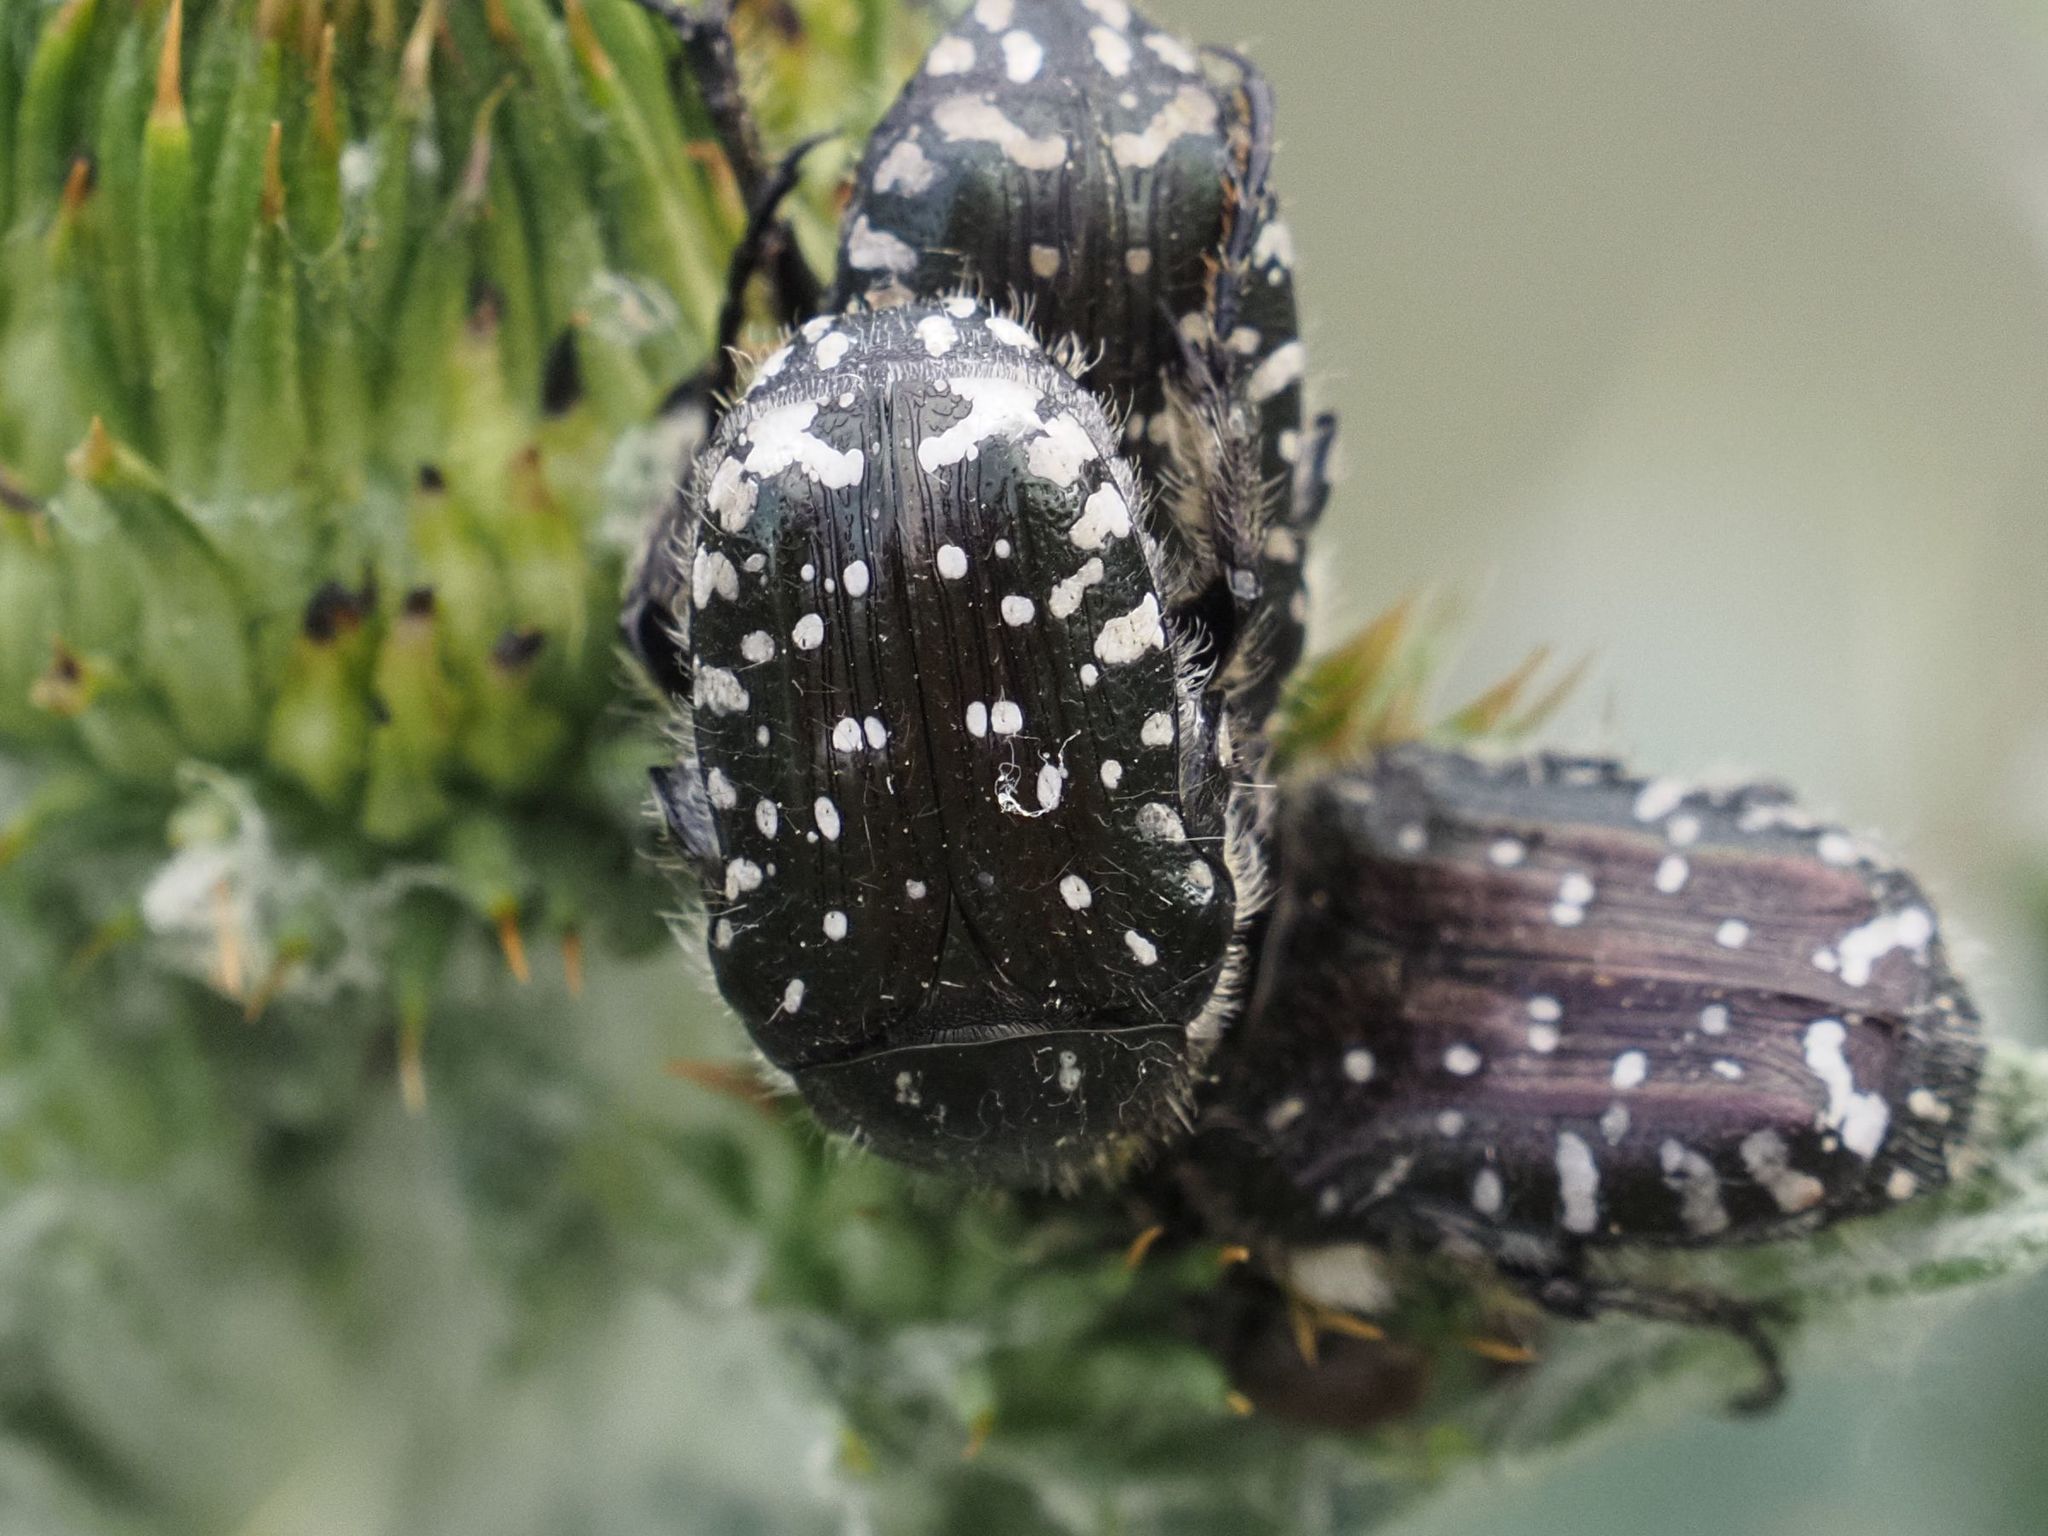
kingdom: Animalia
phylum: Arthropoda
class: Insecta
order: Coleoptera
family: Scarabaeidae
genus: Oxythyrea
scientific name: Oxythyrea funesta
